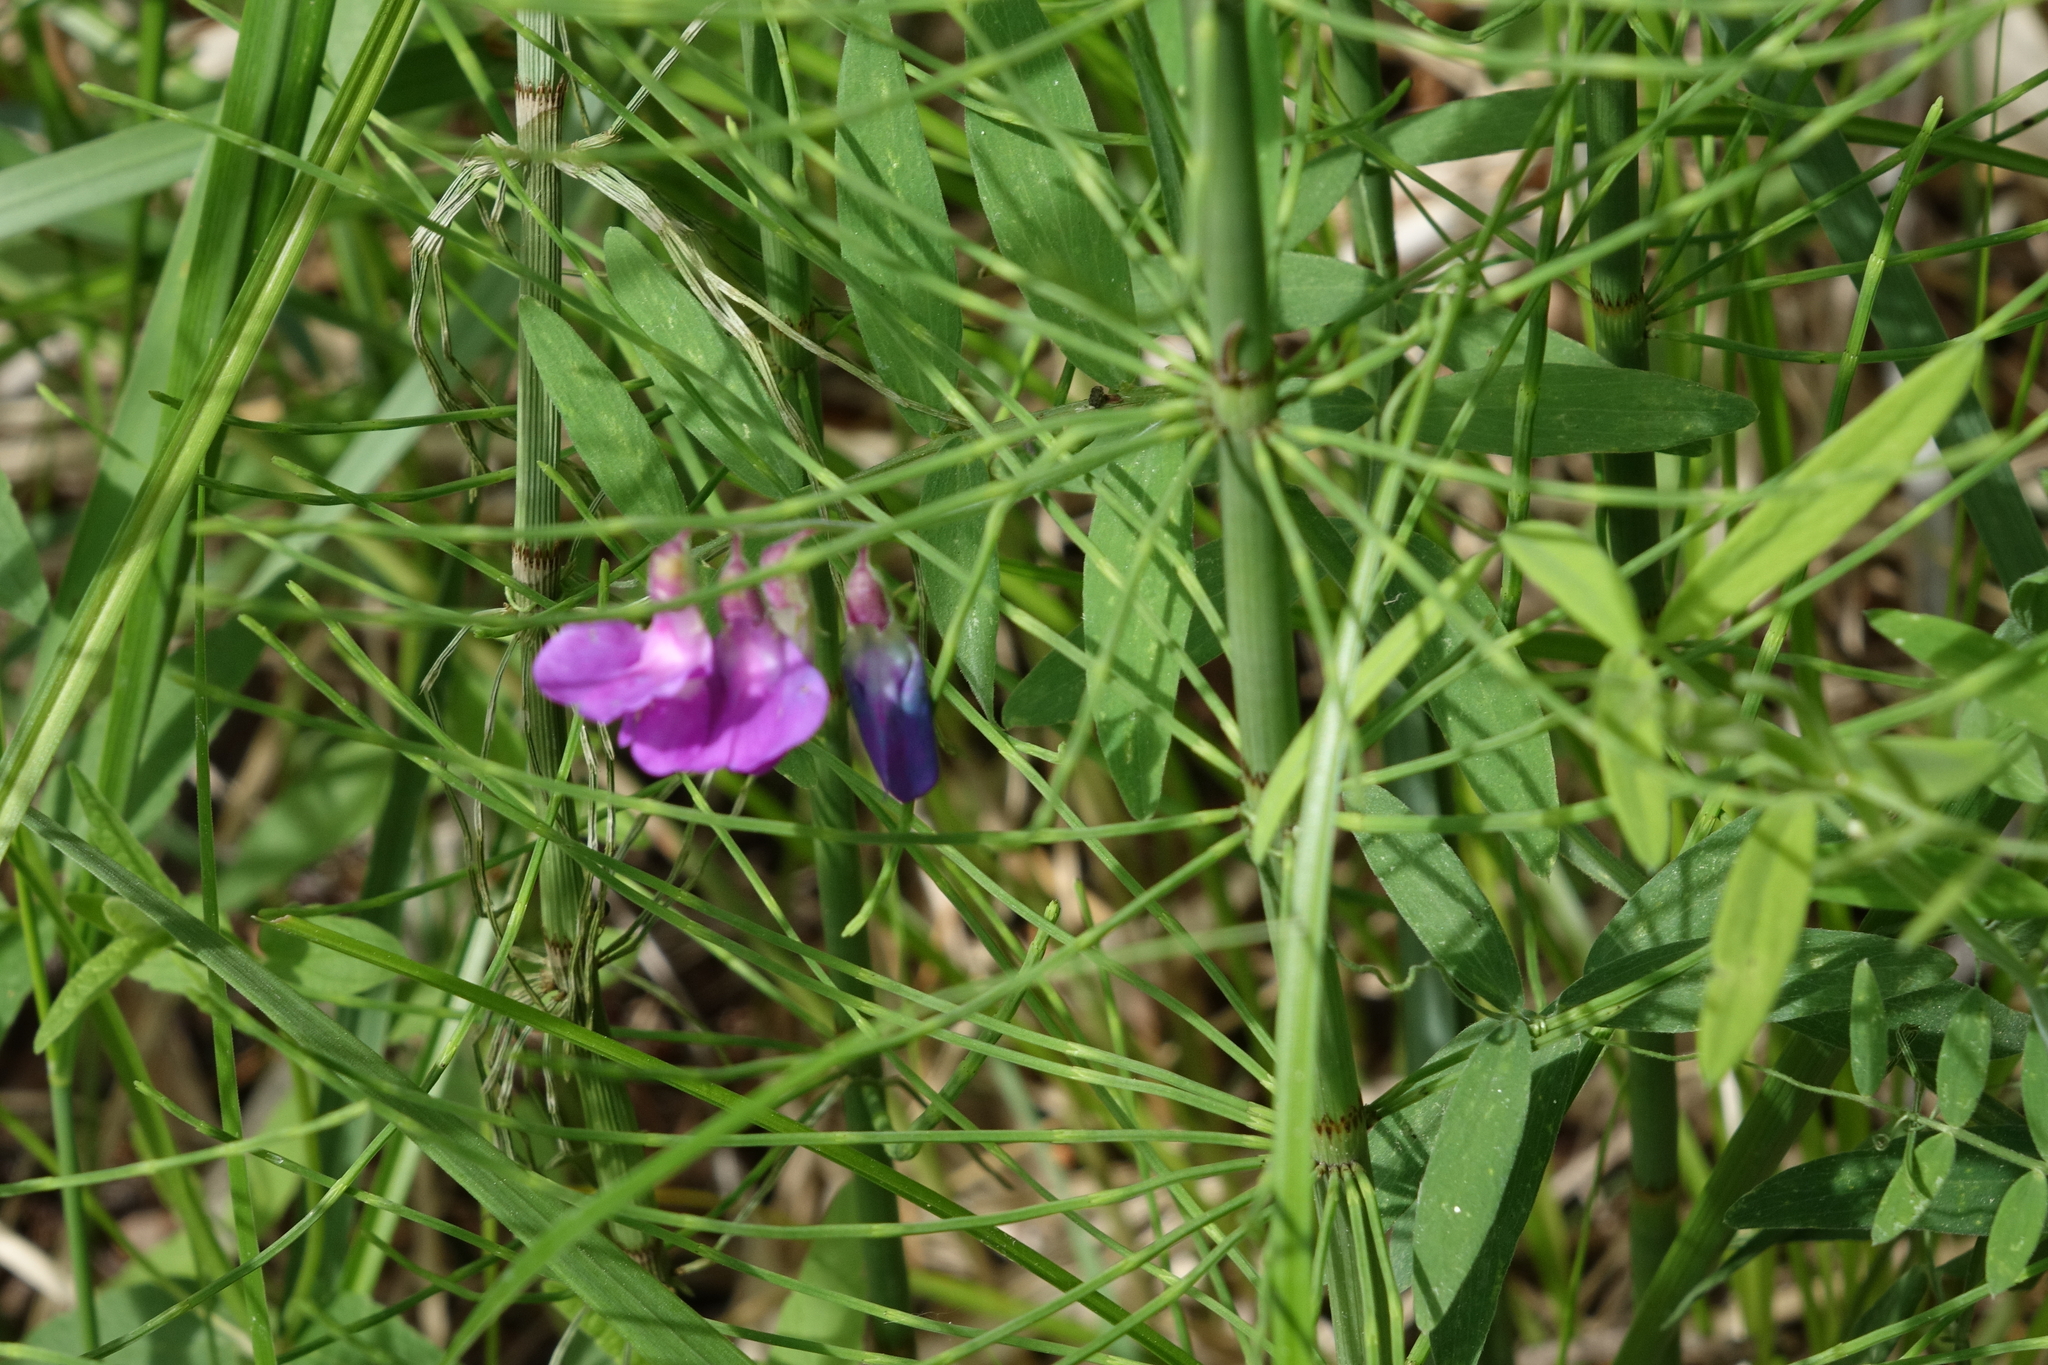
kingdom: Plantae
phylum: Tracheophyta
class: Magnoliopsida
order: Fabales
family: Fabaceae
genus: Lathyrus
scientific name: Lathyrus palustris
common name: Marsh pea
